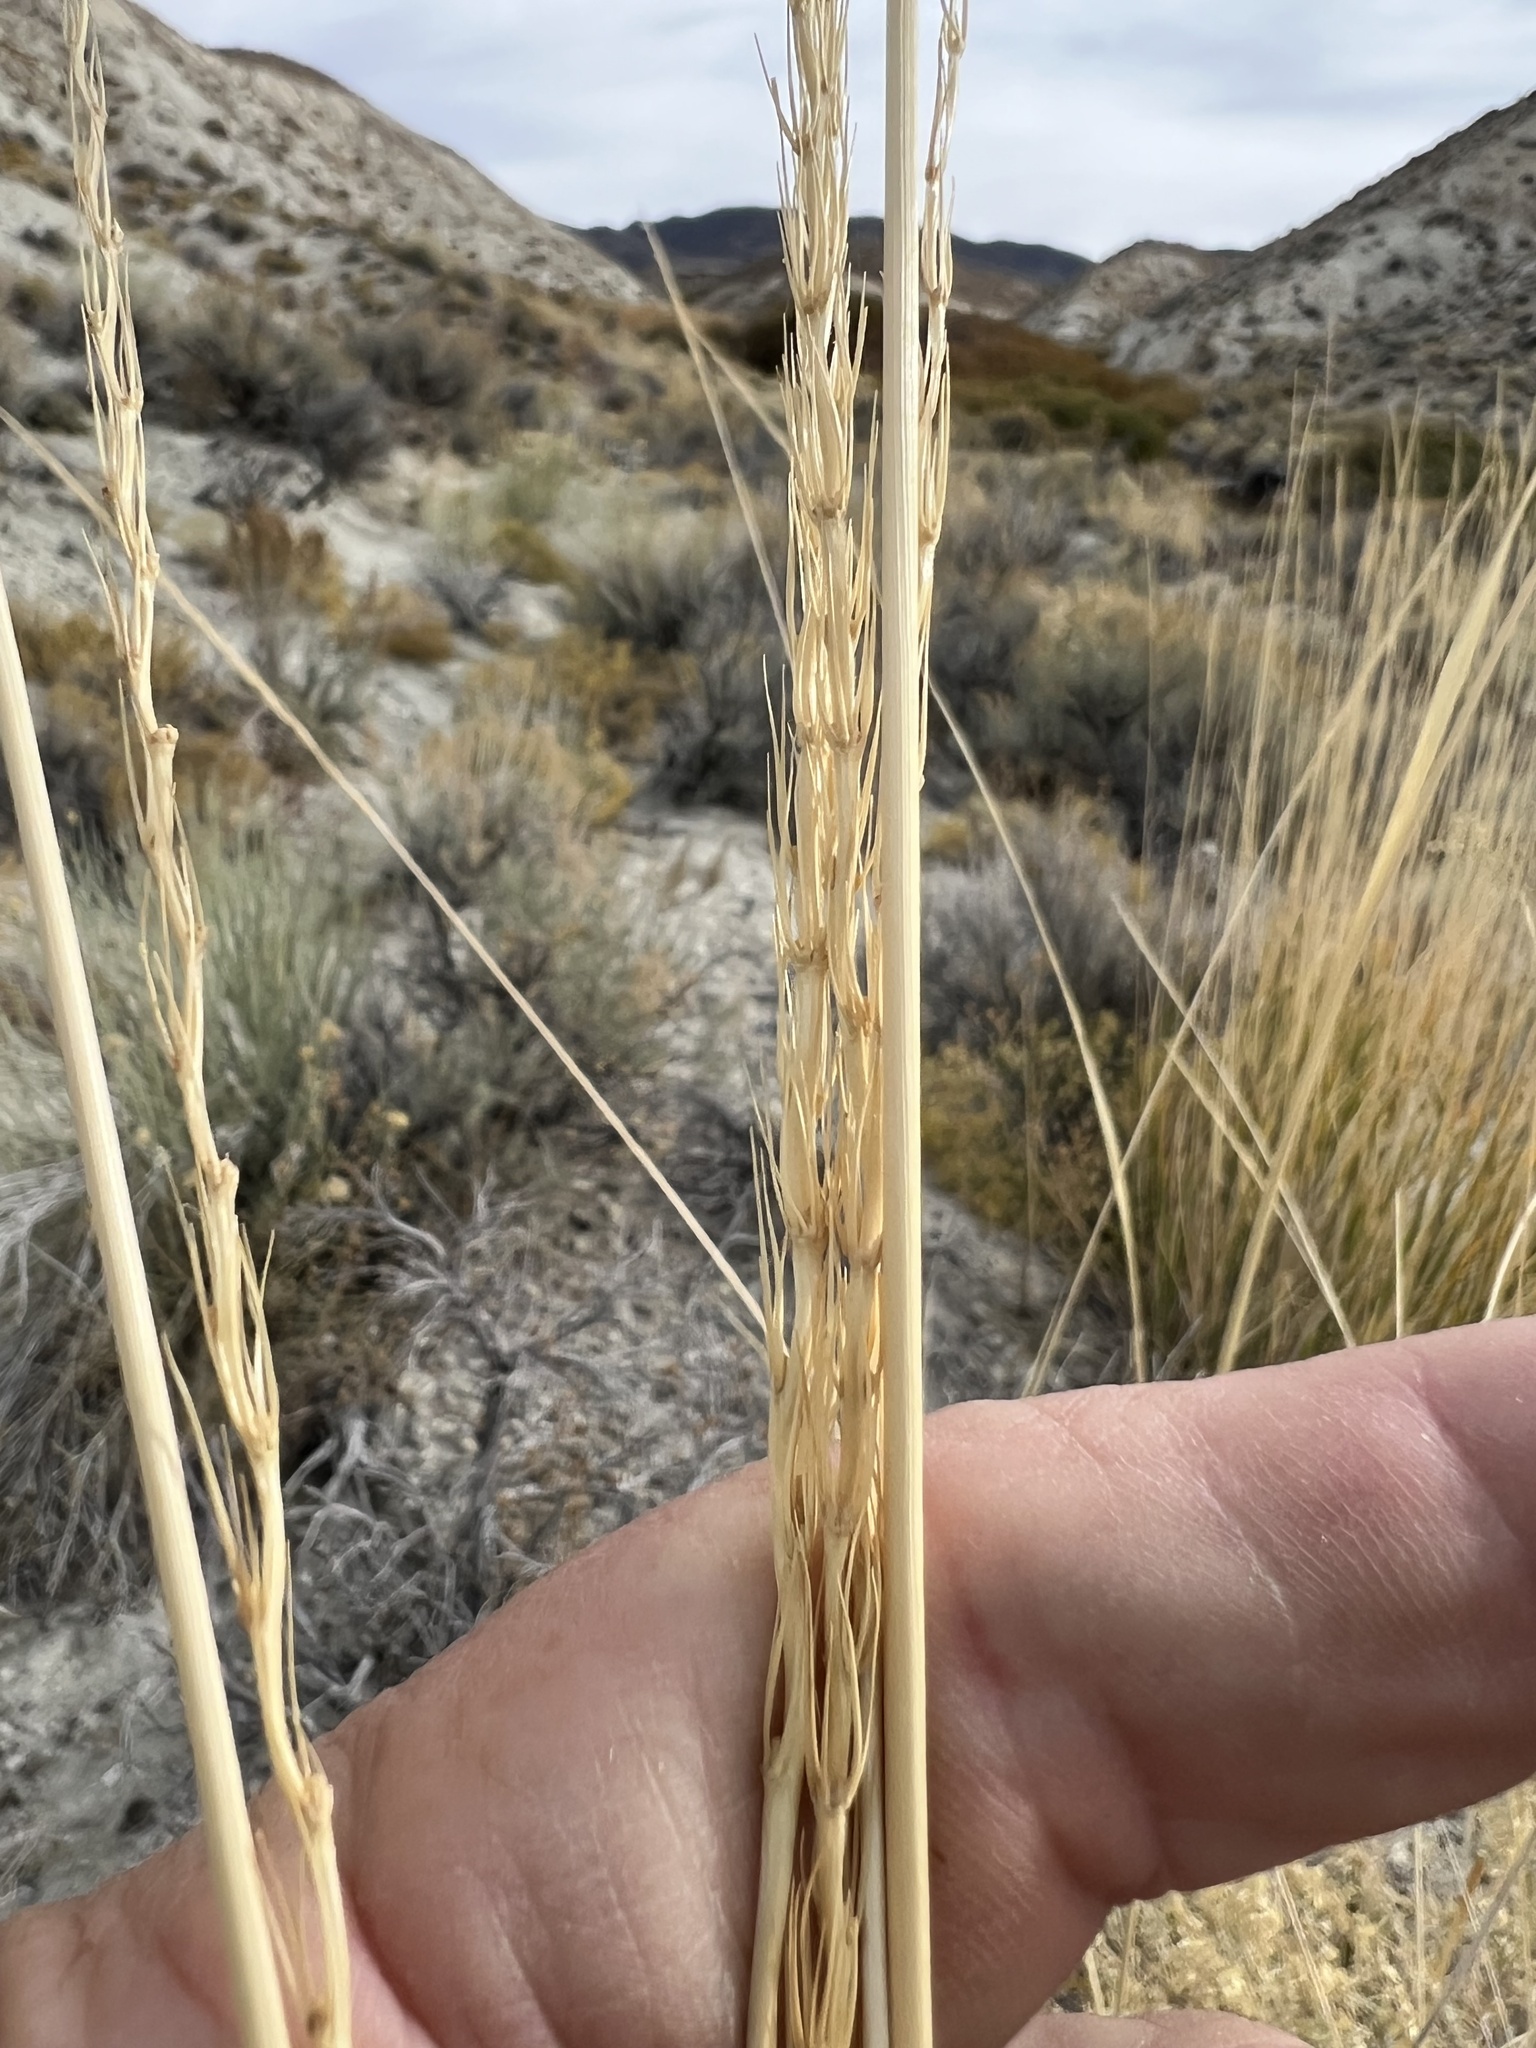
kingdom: Plantae
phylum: Tracheophyta
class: Liliopsida
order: Poales
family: Poaceae
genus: Leymus
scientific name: Leymus cinereus
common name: Basin wild rye
